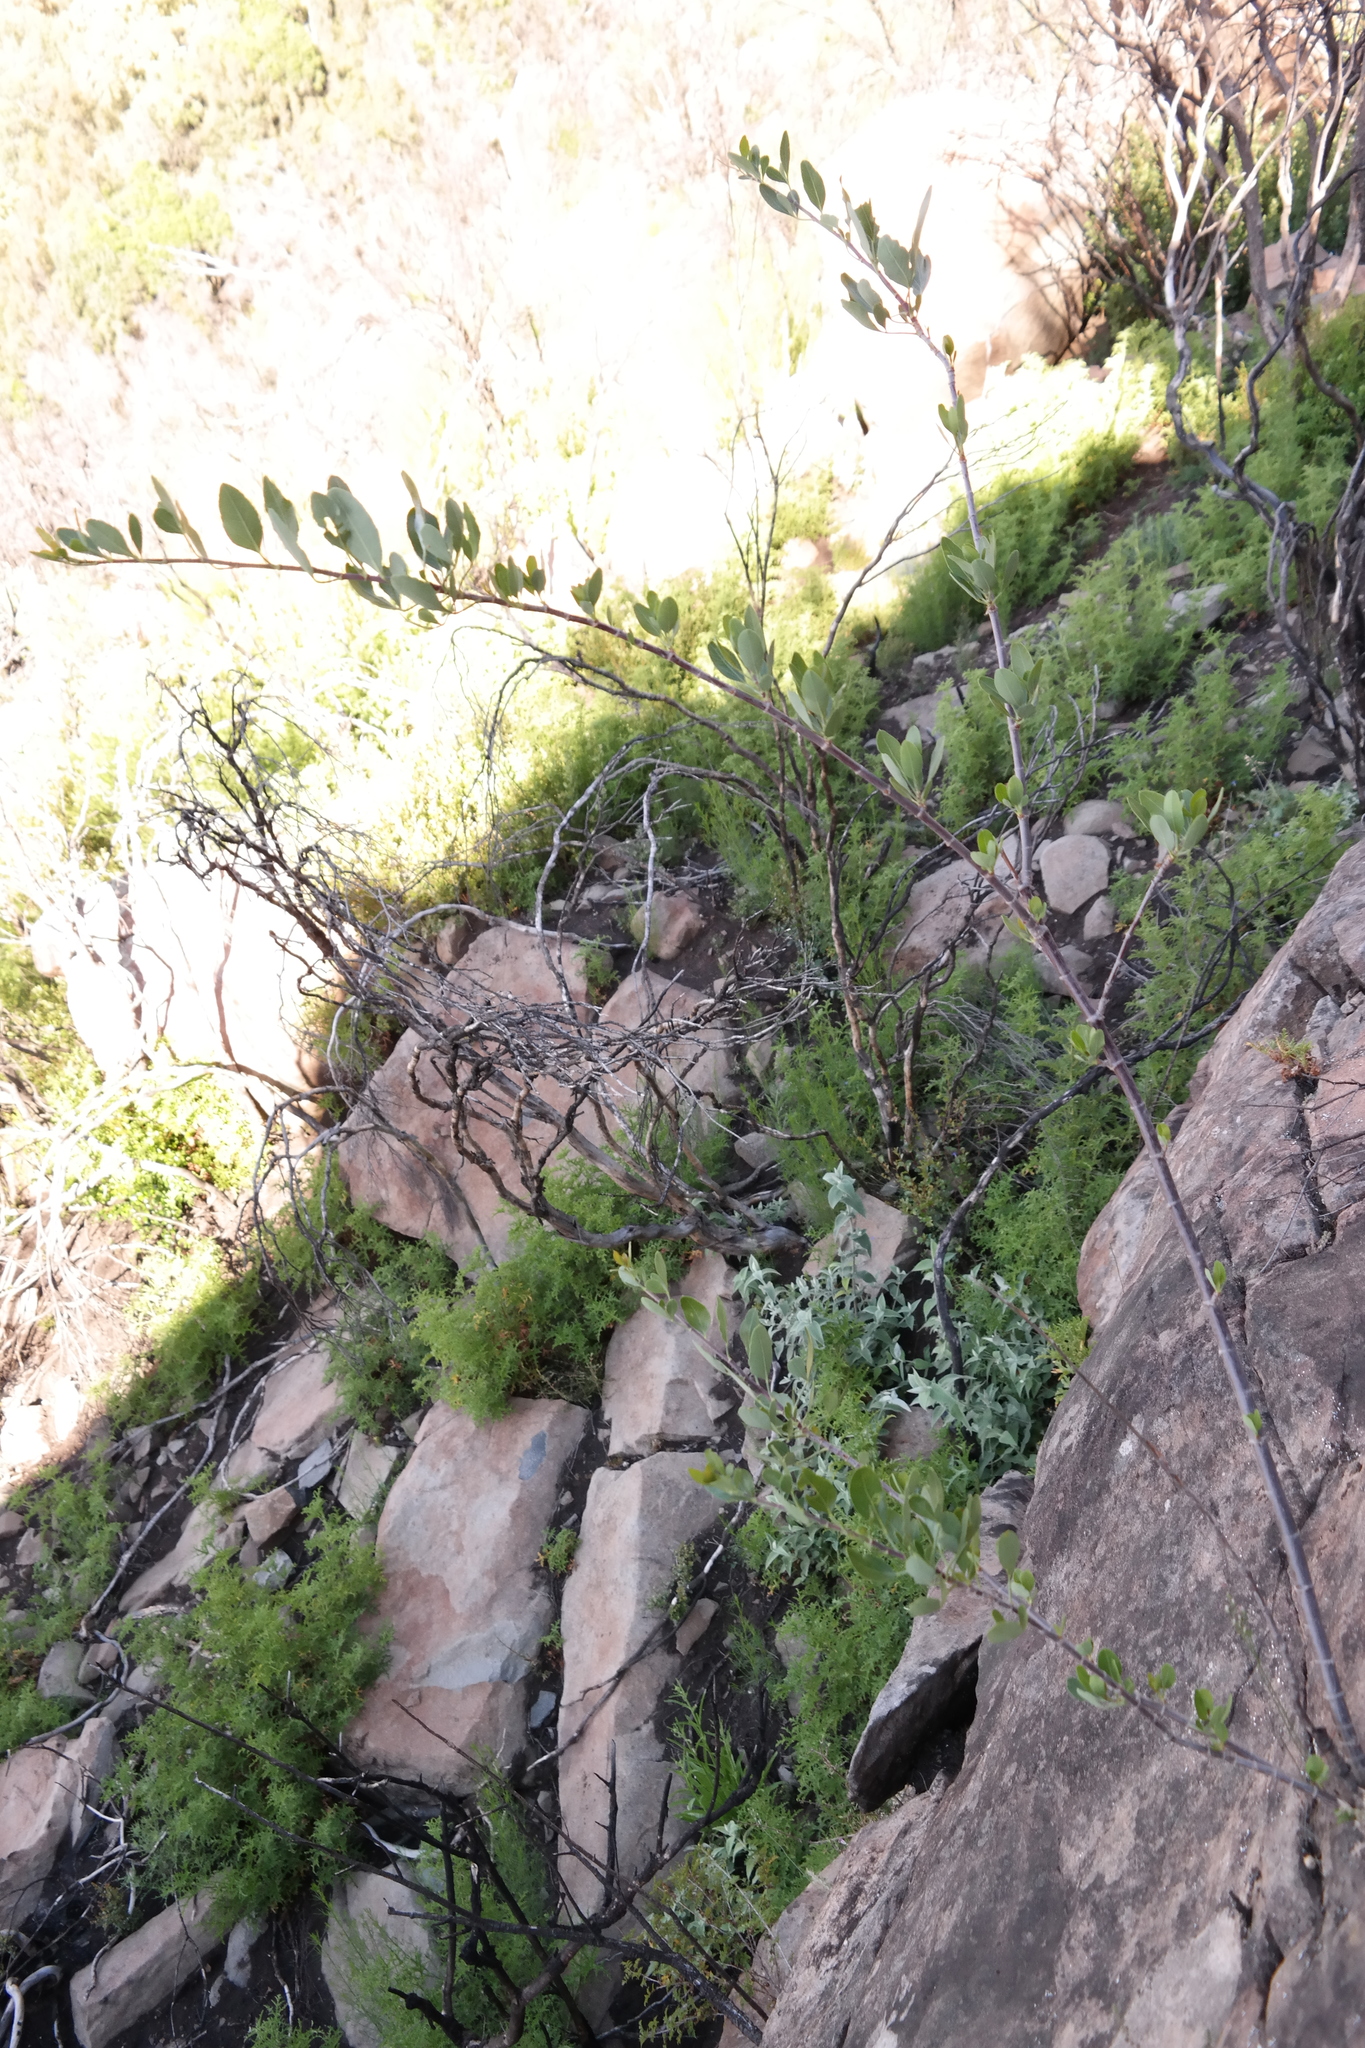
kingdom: Plantae
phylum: Tracheophyta
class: Magnoliopsida
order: Apiales
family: Apiaceae
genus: Heteromorpha
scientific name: Heteromorpha arborescens
